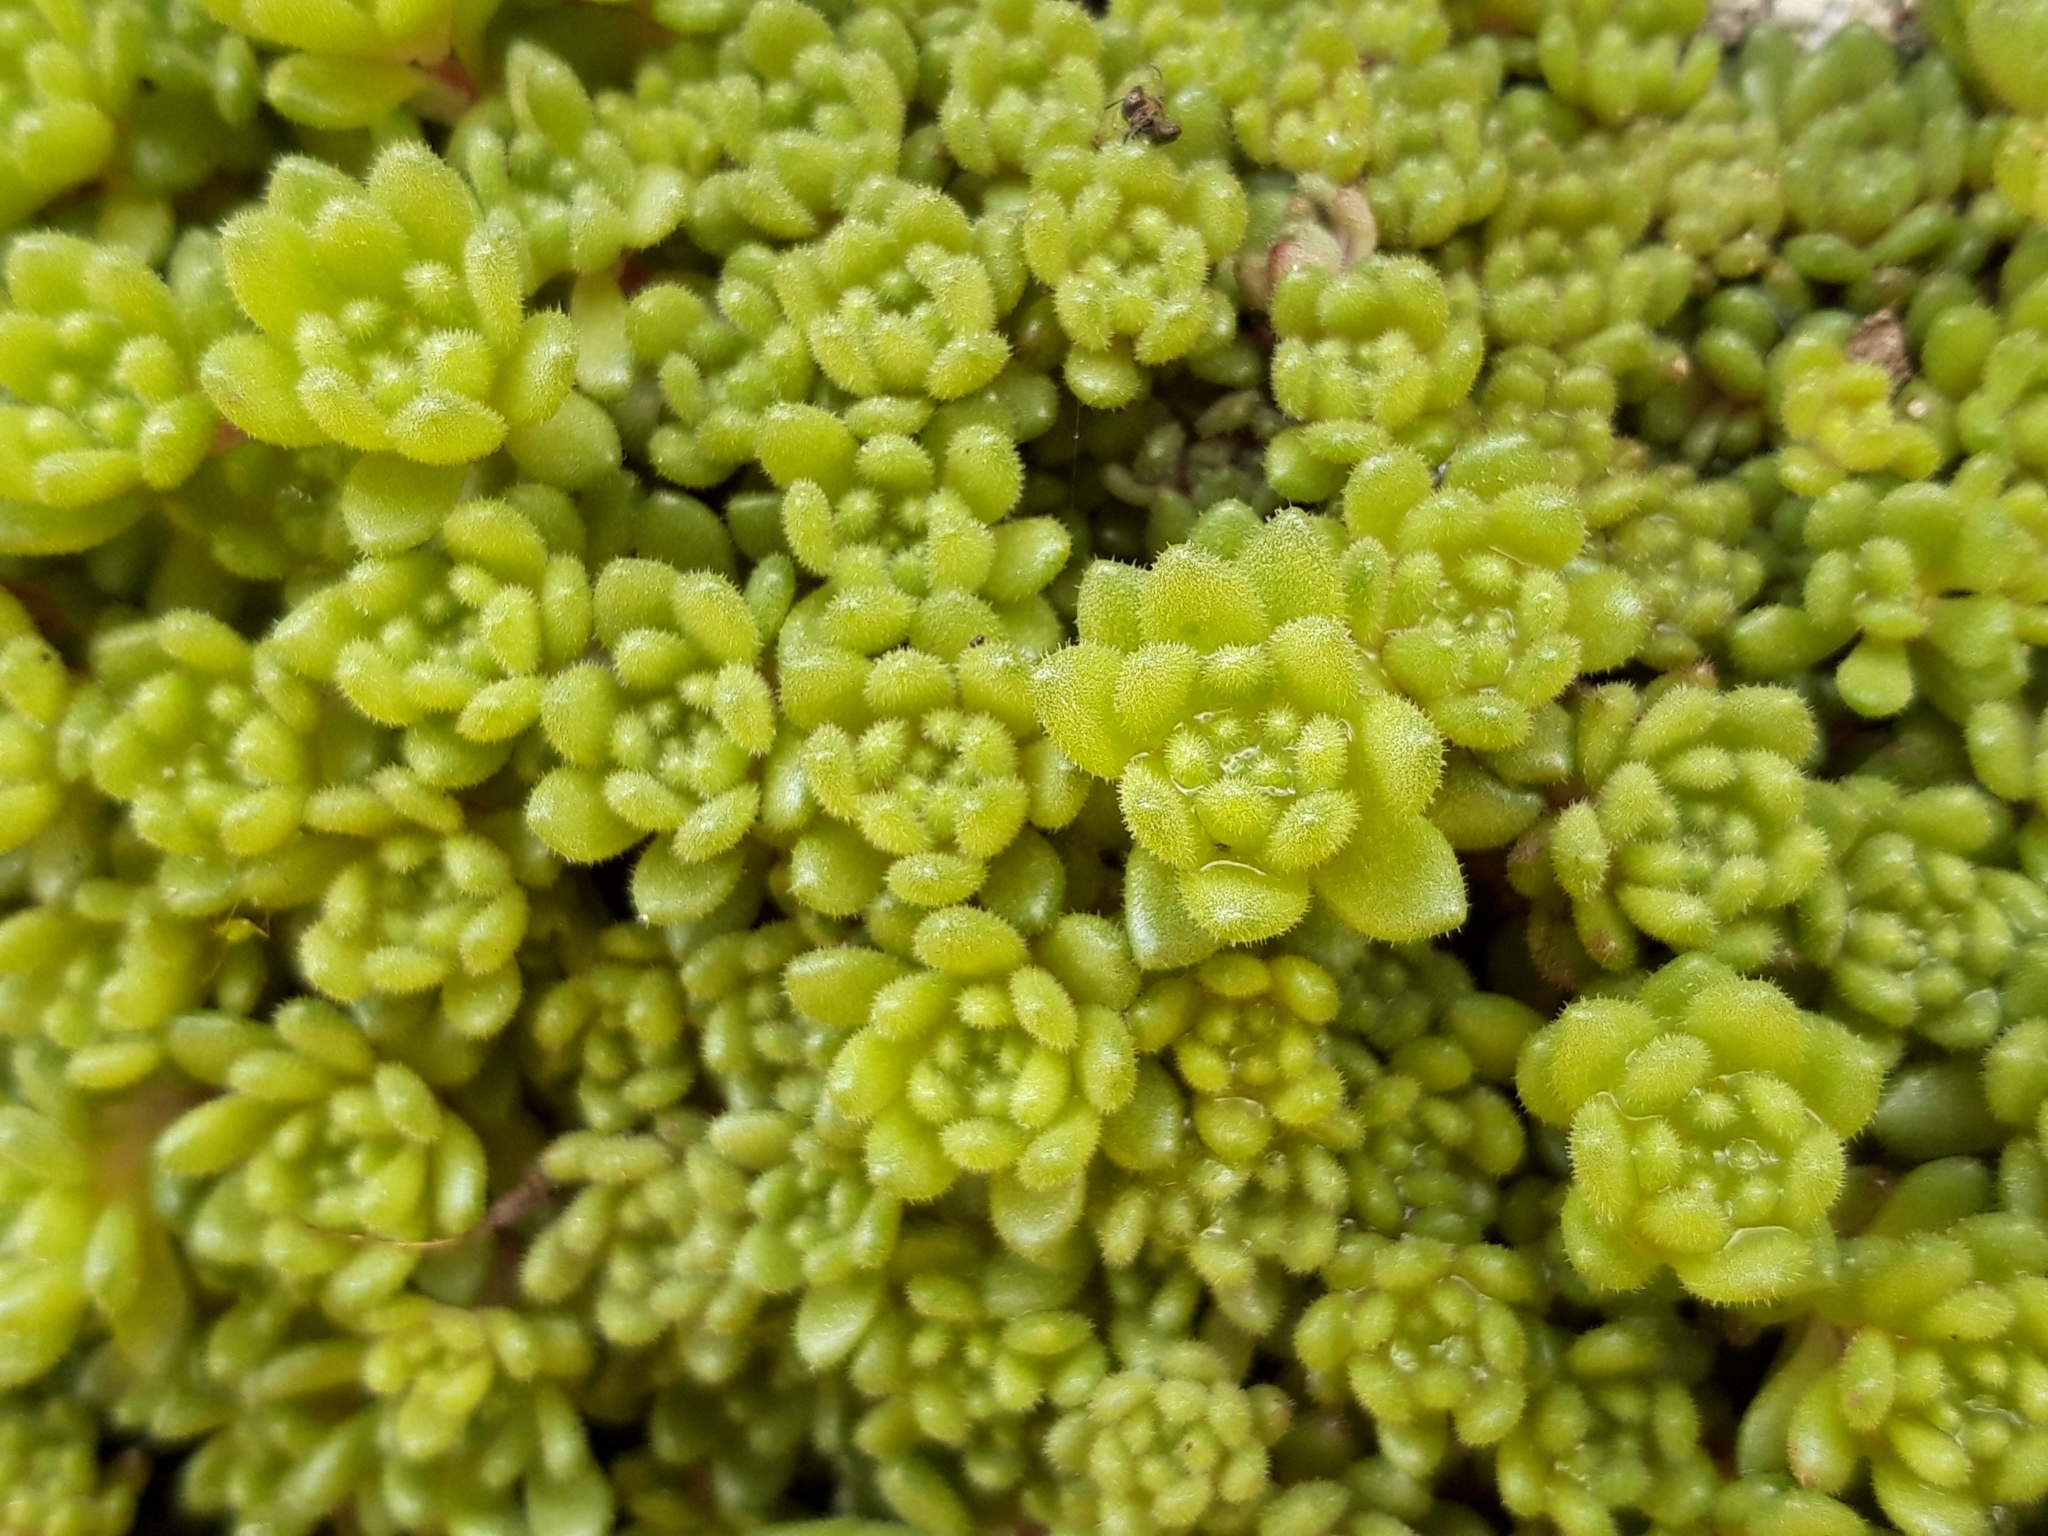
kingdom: Plantae
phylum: Tracheophyta
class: Magnoliopsida
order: Saxifragales
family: Crassulaceae
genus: Sedum
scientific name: Sedum hirsutum
